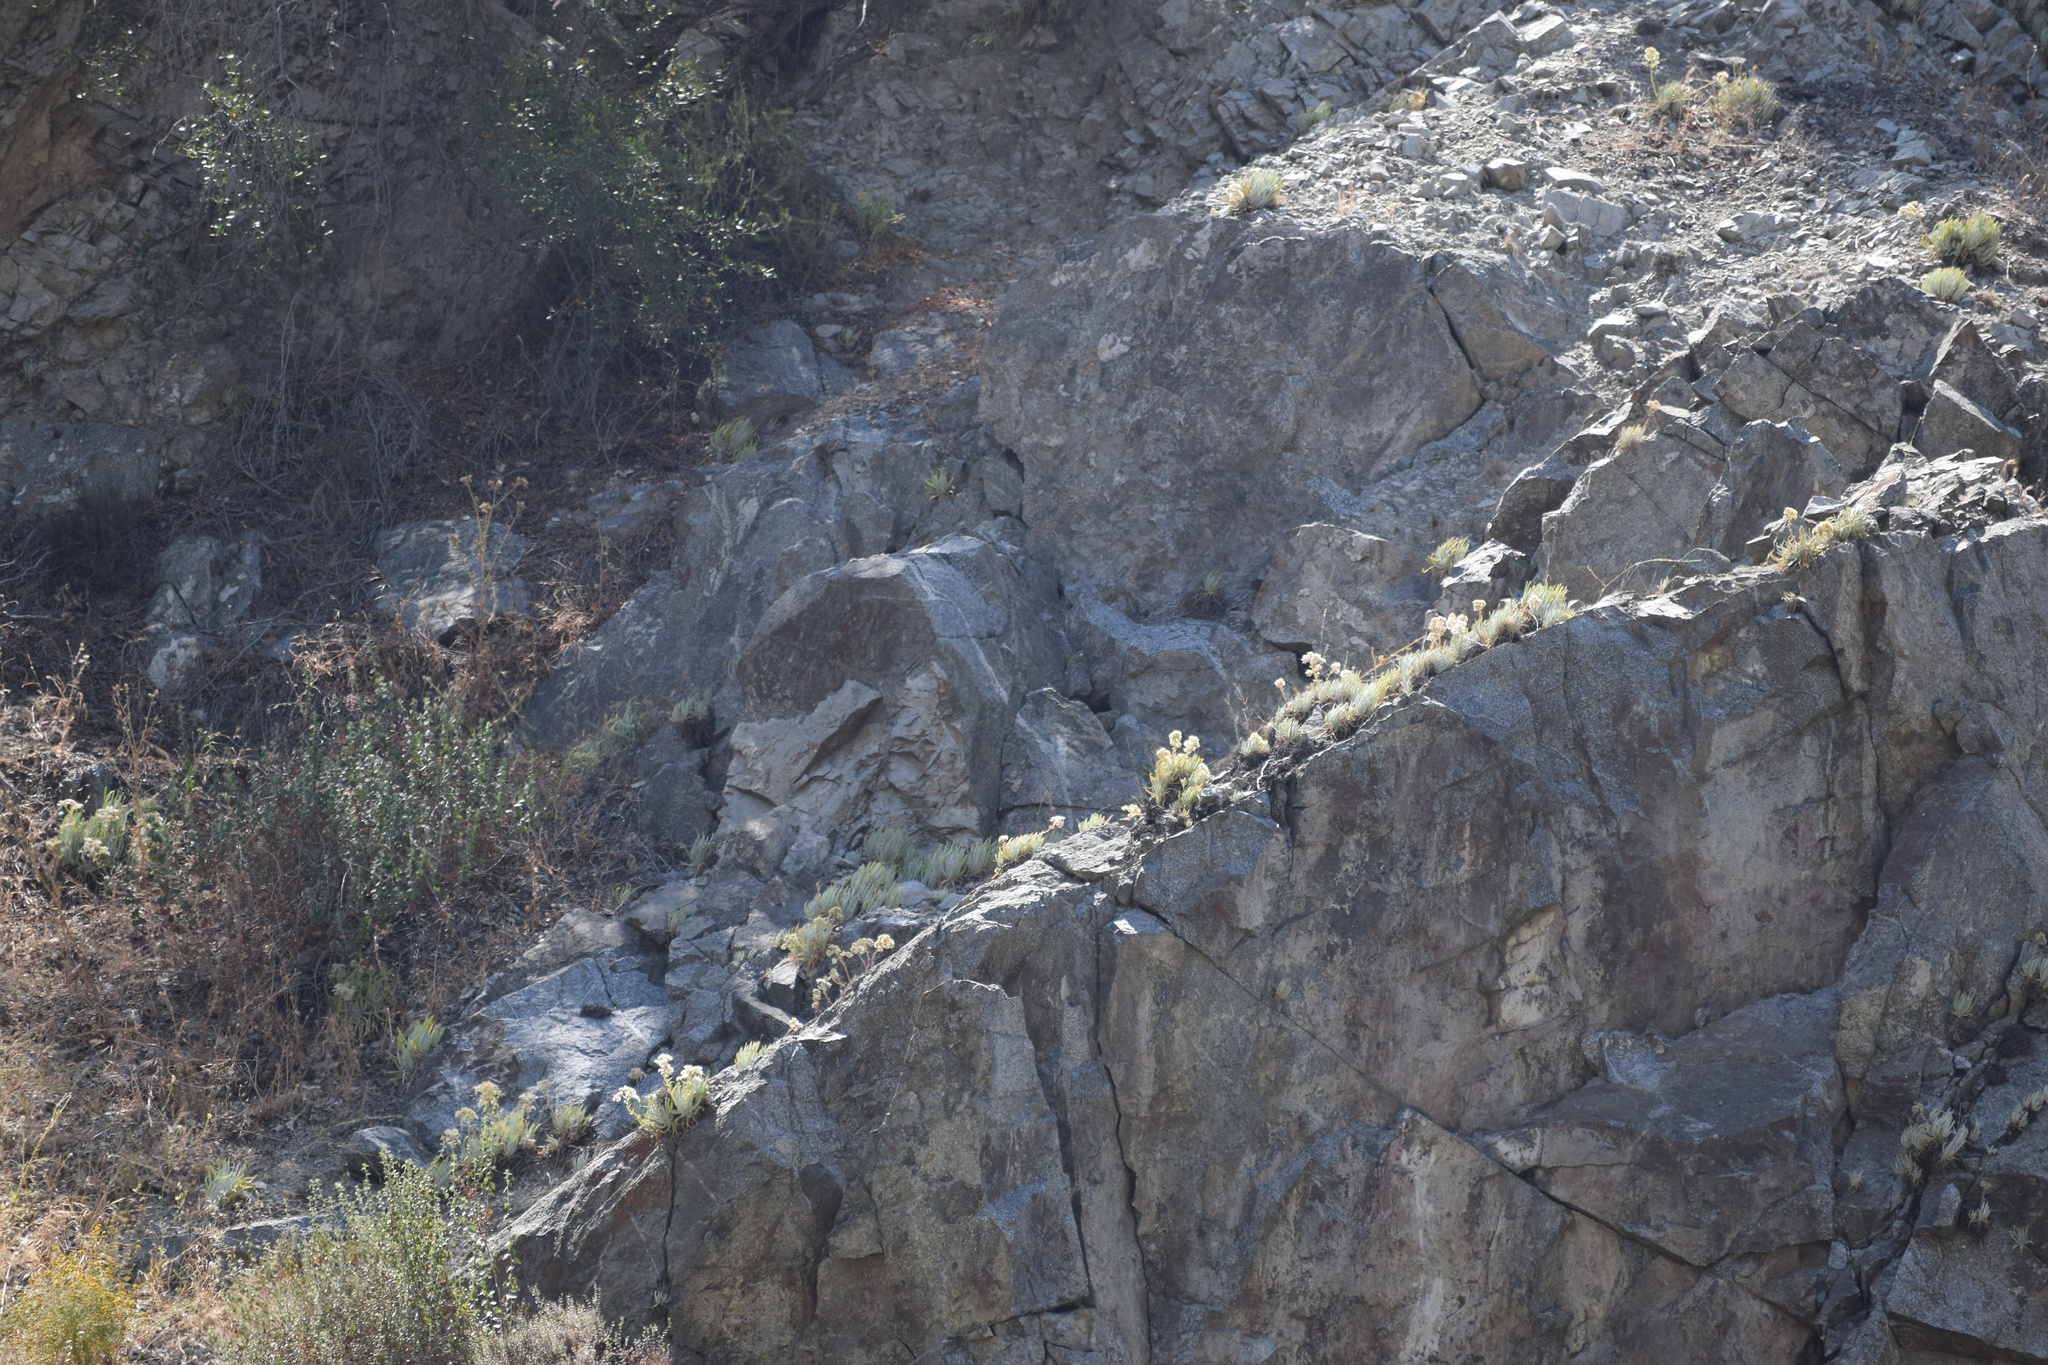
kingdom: Plantae
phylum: Tracheophyta
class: Magnoliopsida
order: Saxifragales
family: Crassulaceae
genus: Dudleya
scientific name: Dudleya densiflora
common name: San gabriel mountains dudleya
